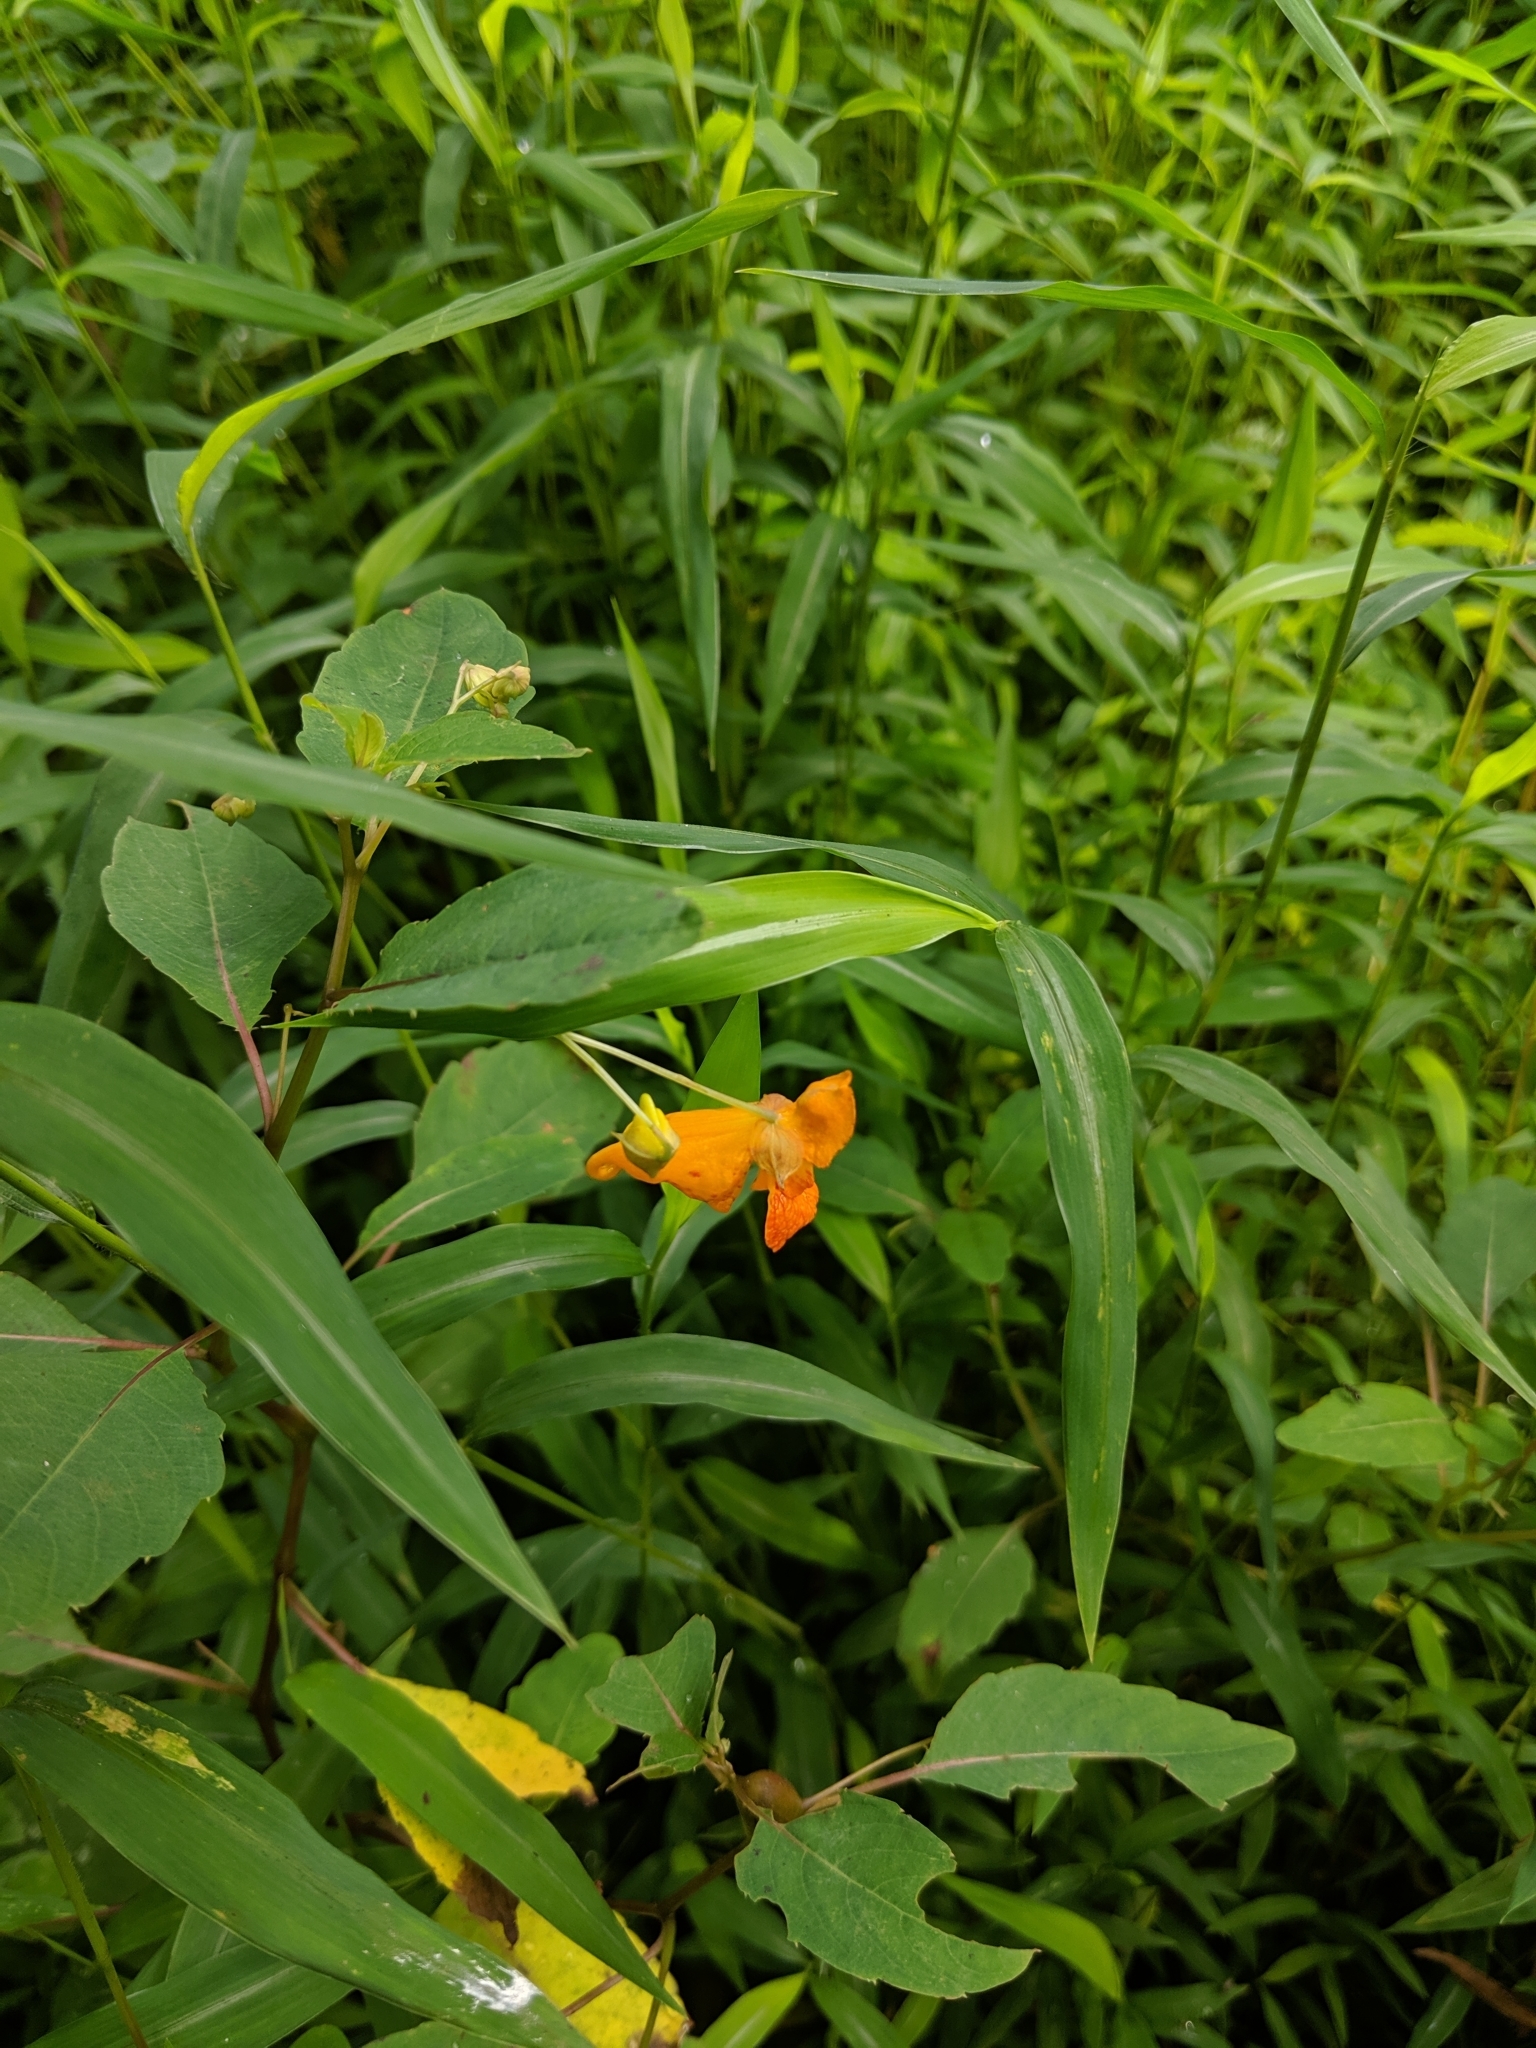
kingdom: Plantae
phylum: Tracheophyta
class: Magnoliopsida
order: Ericales
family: Balsaminaceae
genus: Impatiens
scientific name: Impatiens capensis
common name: Orange balsam
